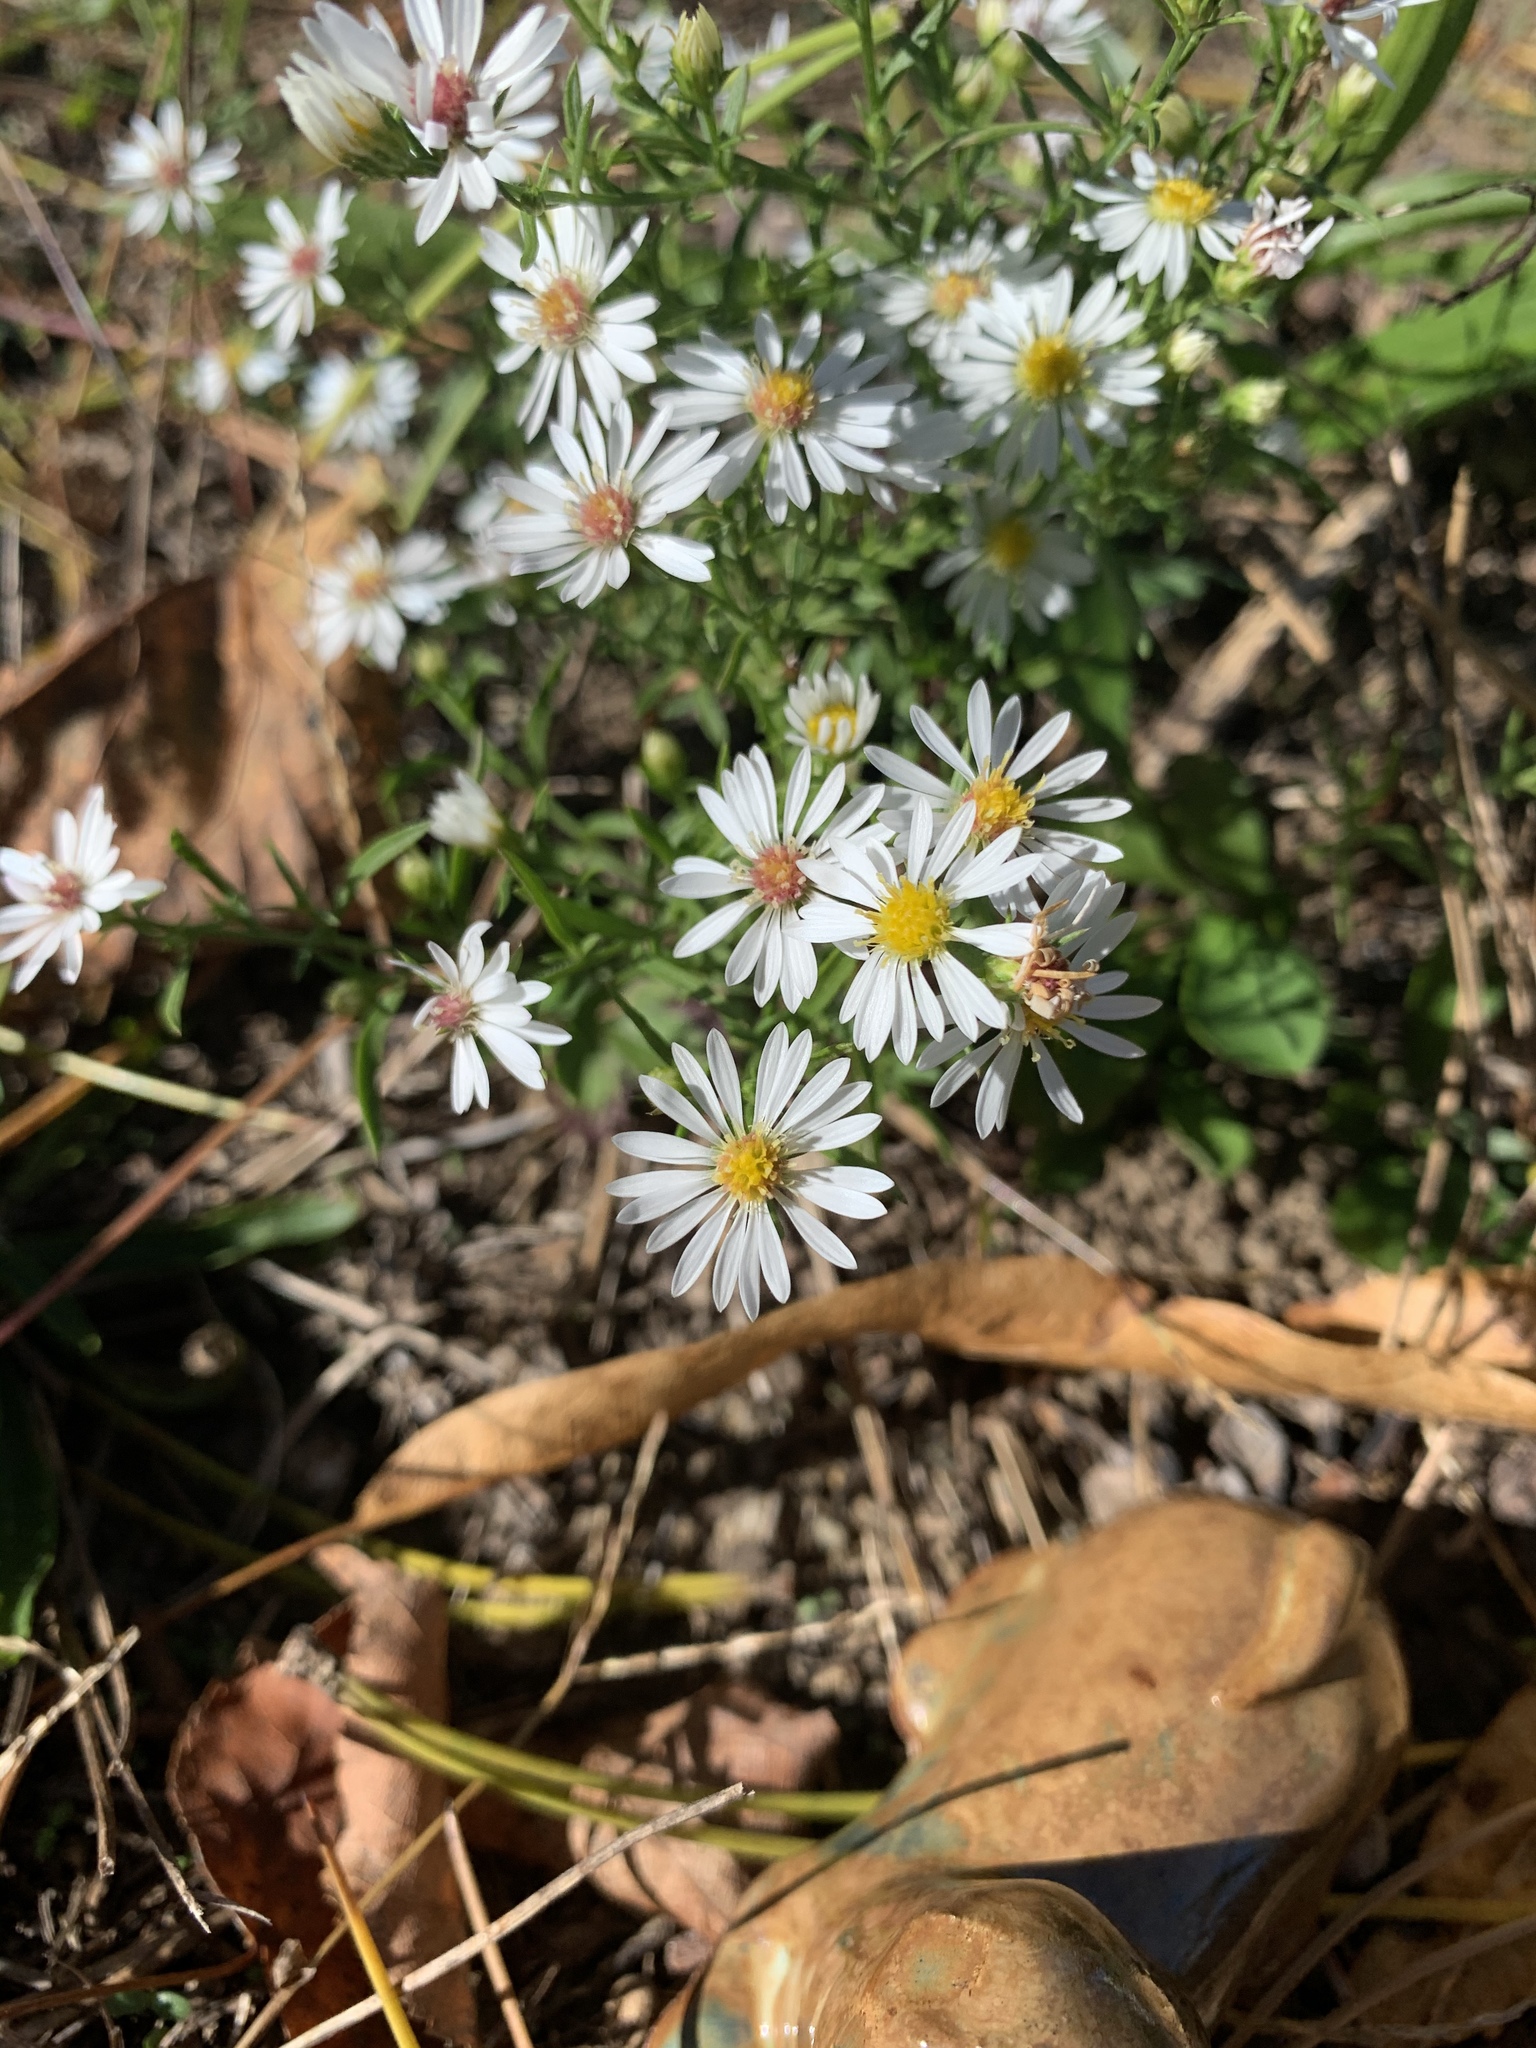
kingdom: Plantae
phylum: Tracheophyta
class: Magnoliopsida
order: Asterales
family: Asteraceae
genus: Symphyotrichum
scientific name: Symphyotrichum lanceolatum
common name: Panicled aster
